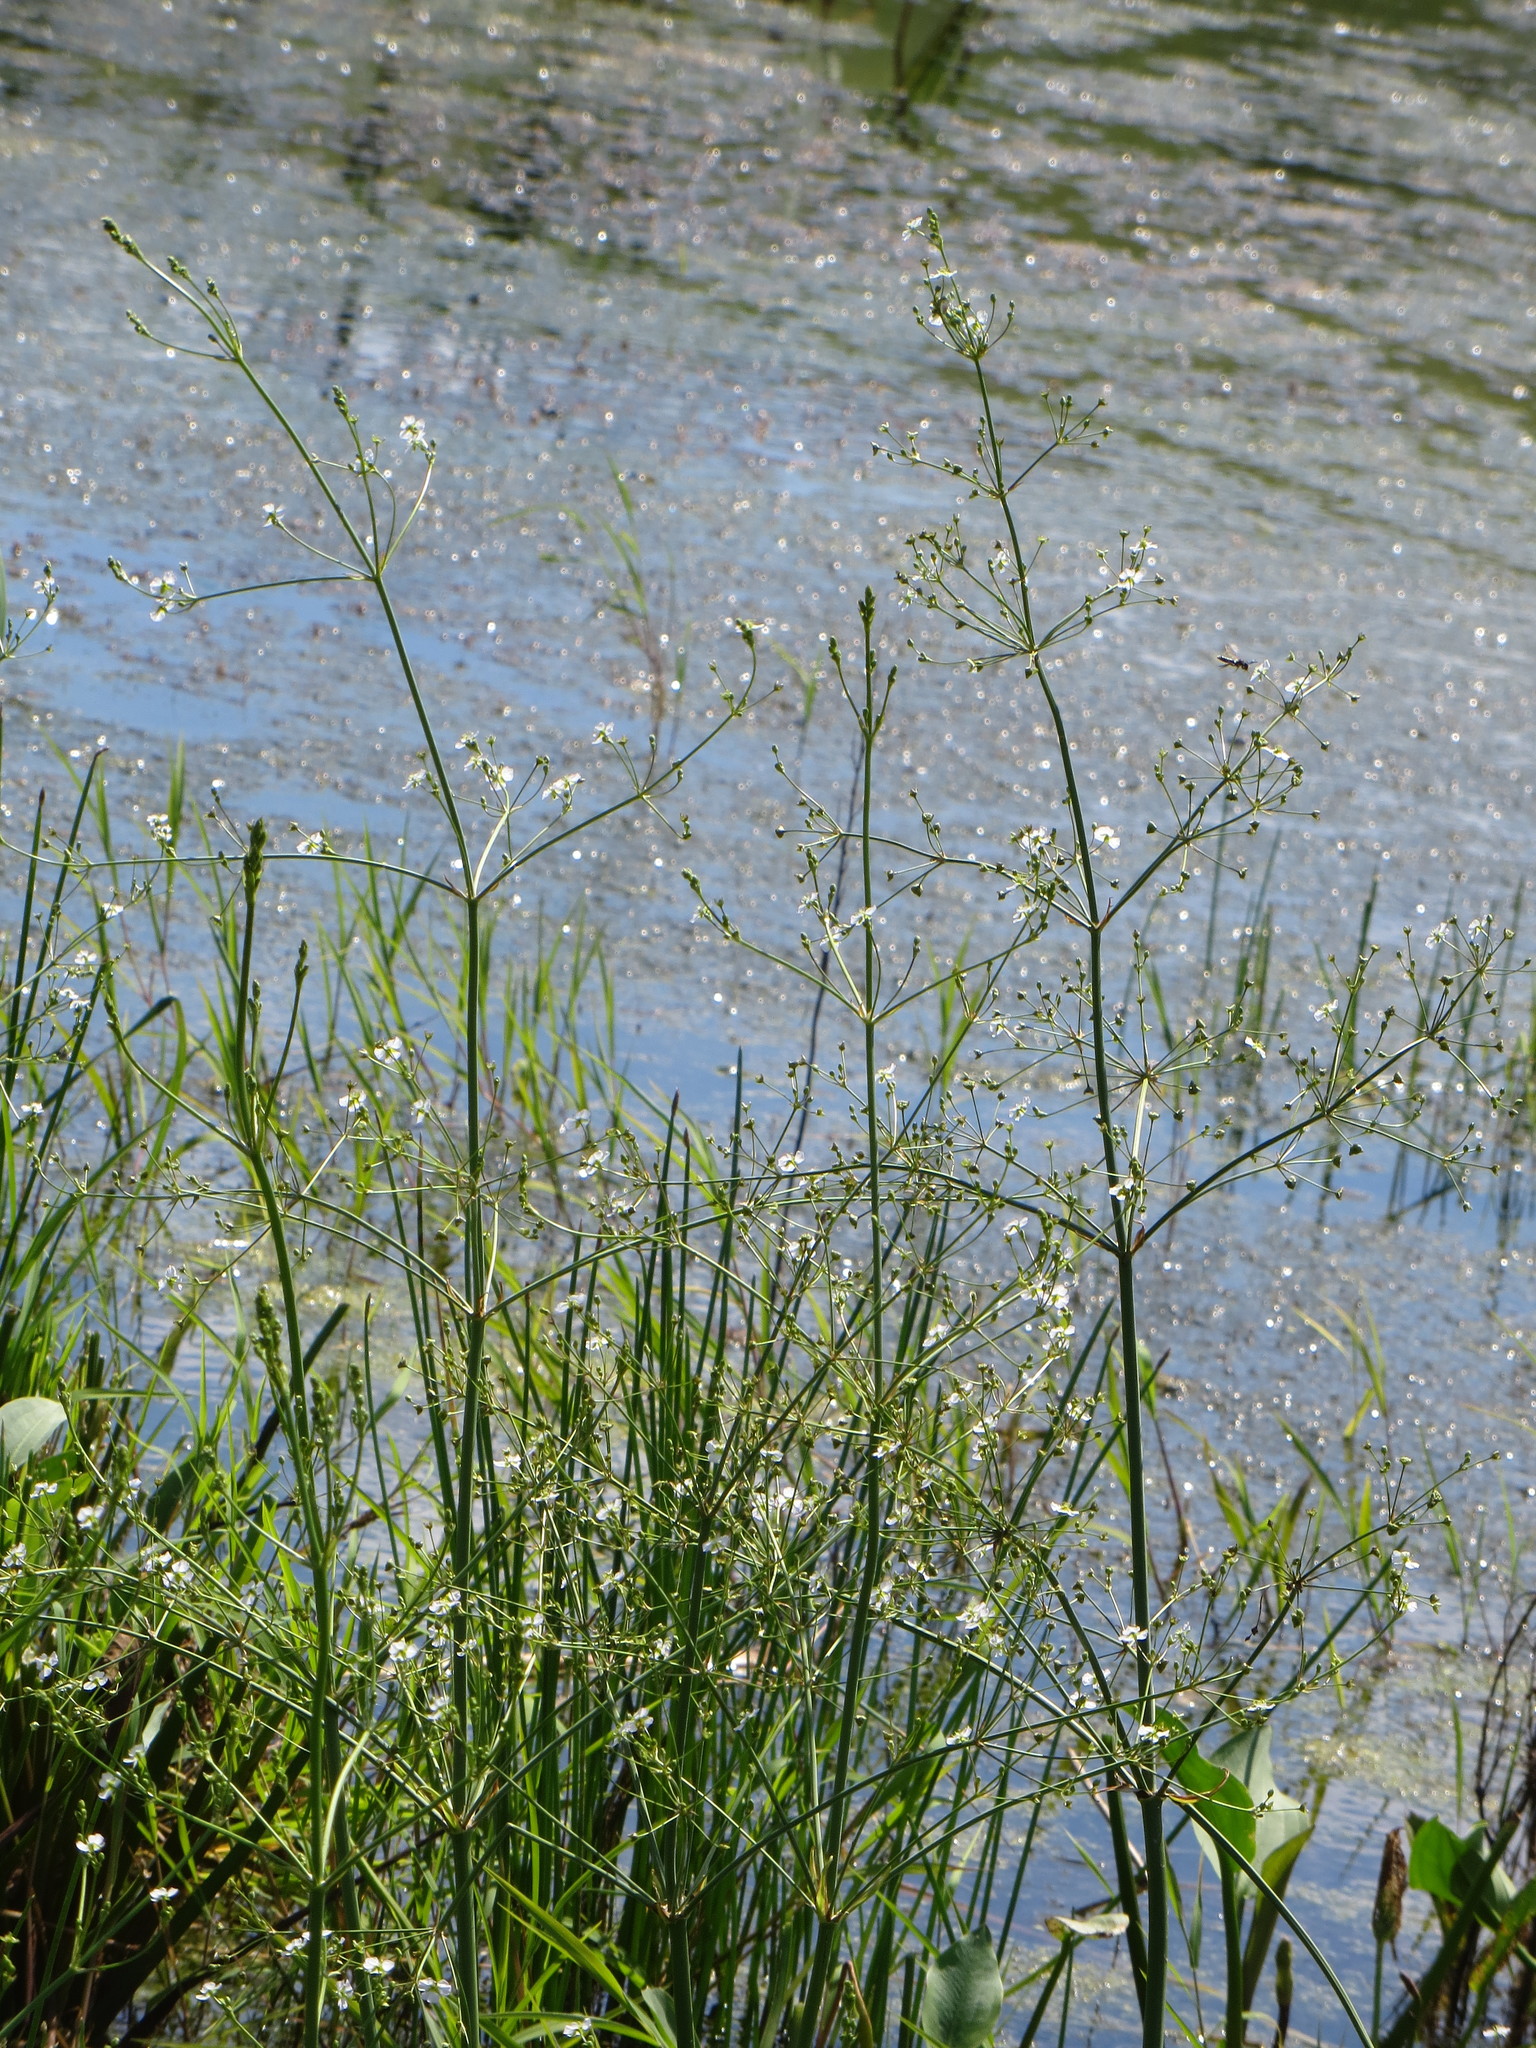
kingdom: Plantae
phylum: Tracheophyta
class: Liliopsida
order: Alismatales
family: Alismataceae
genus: Alisma
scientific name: Alisma plantago-aquatica
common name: Water-plantain
